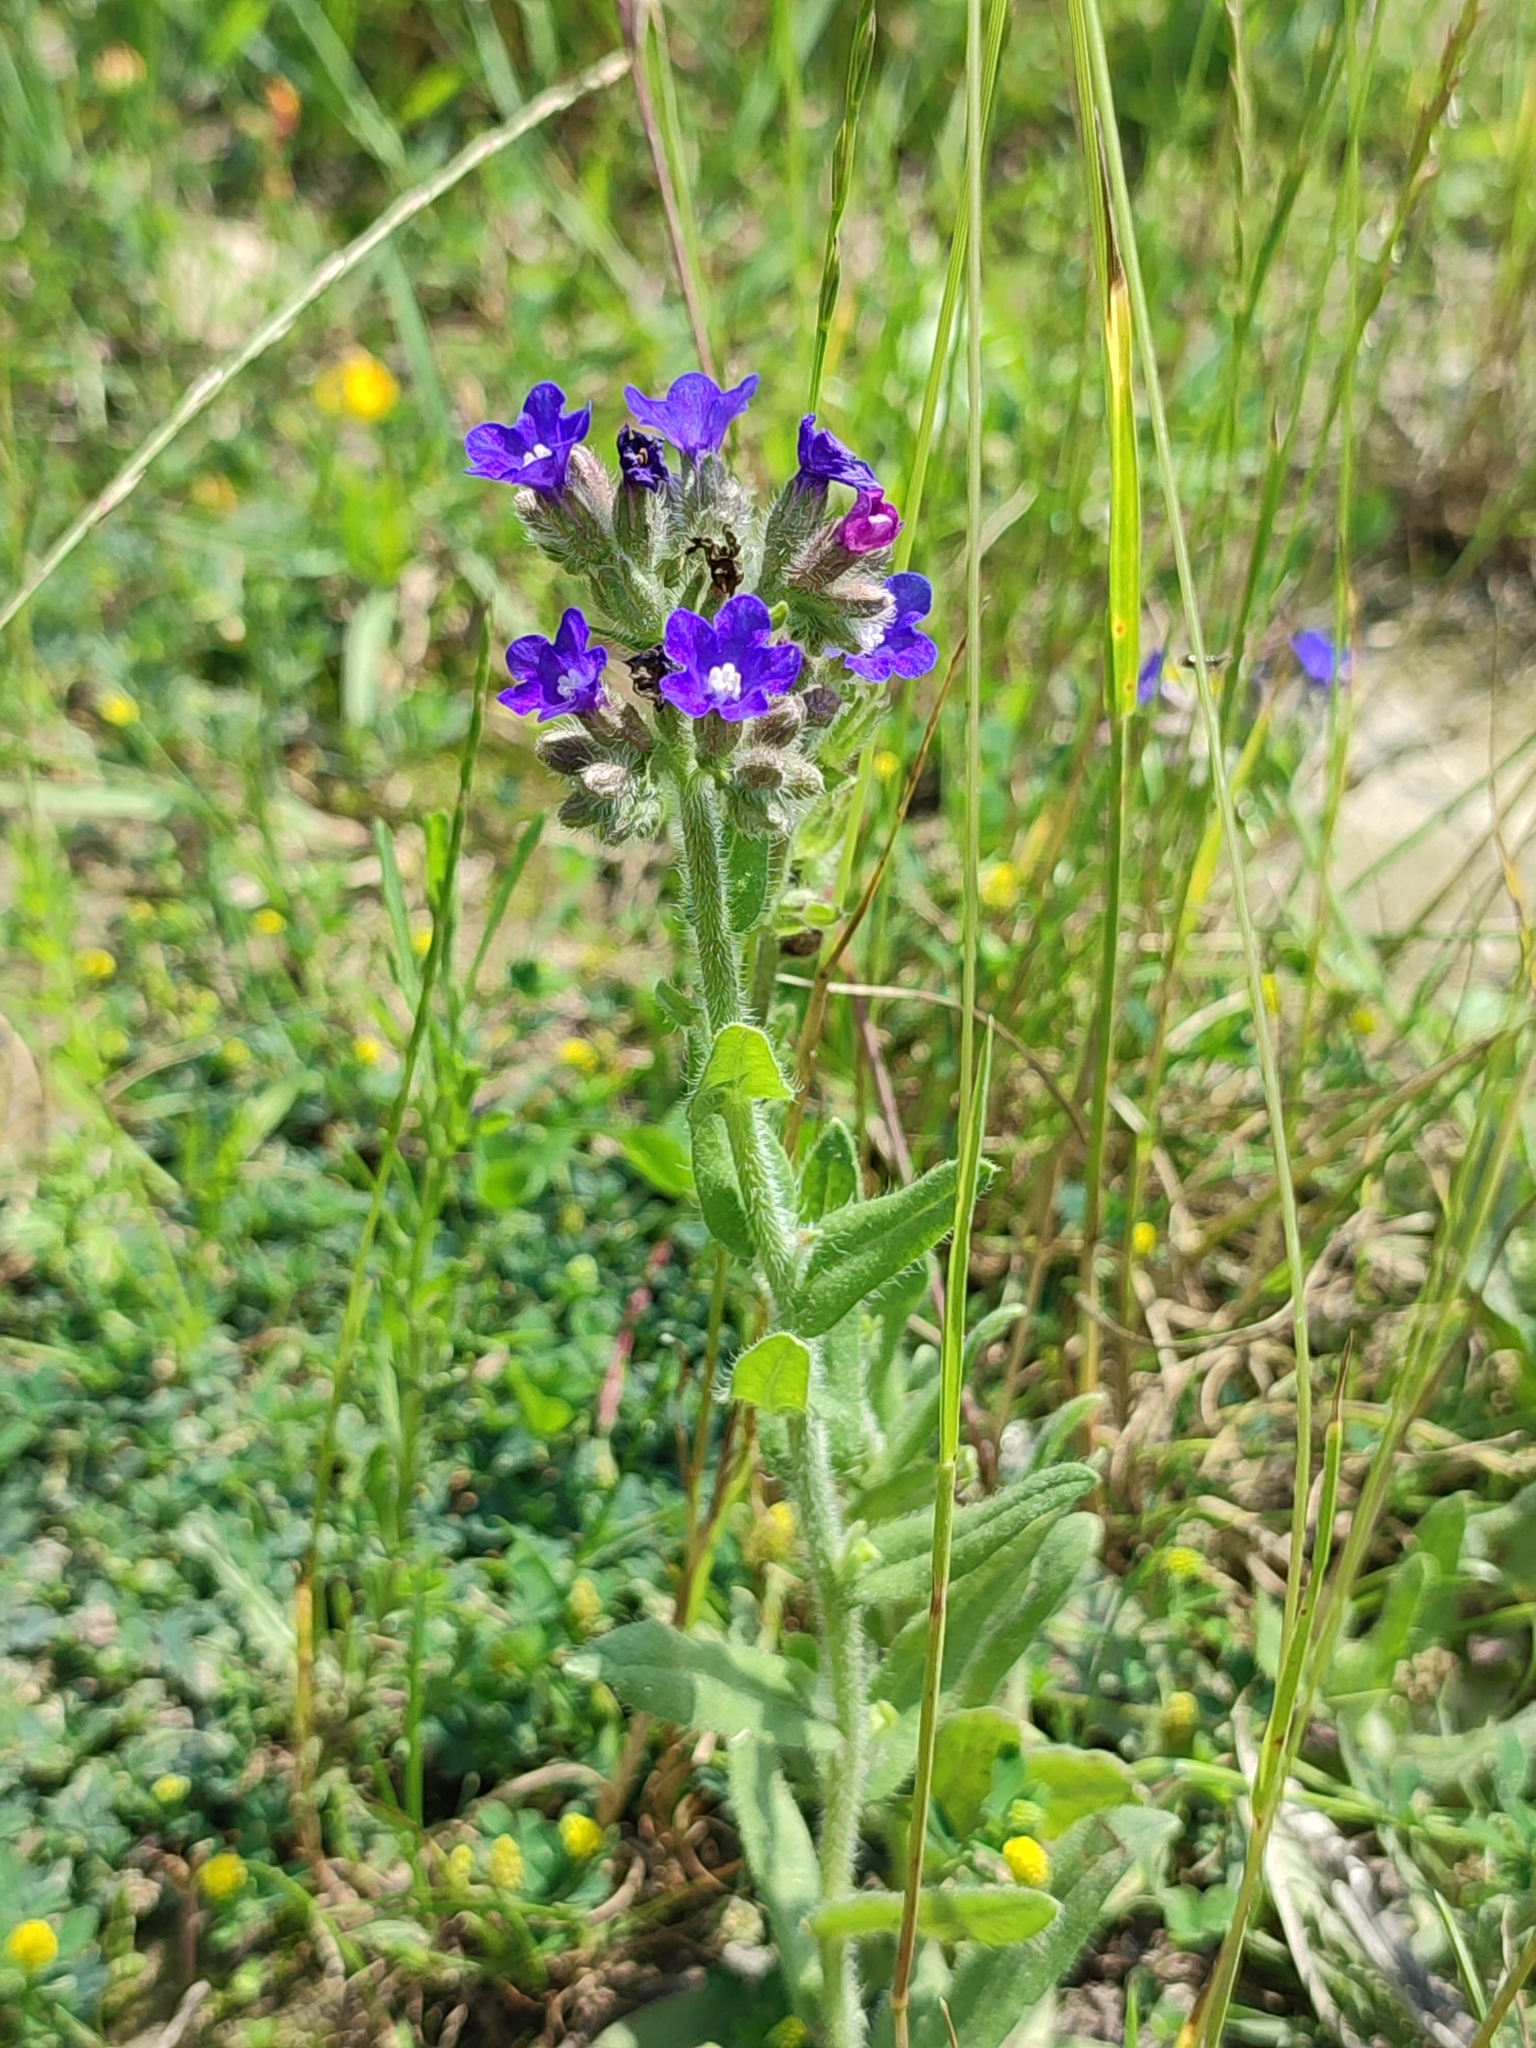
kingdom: Plantae
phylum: Tracheophyta
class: Magnoliopsida
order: Boraginales
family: Boraginaceae
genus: Anchusa
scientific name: Anchusa officinalis
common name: Alkanet
